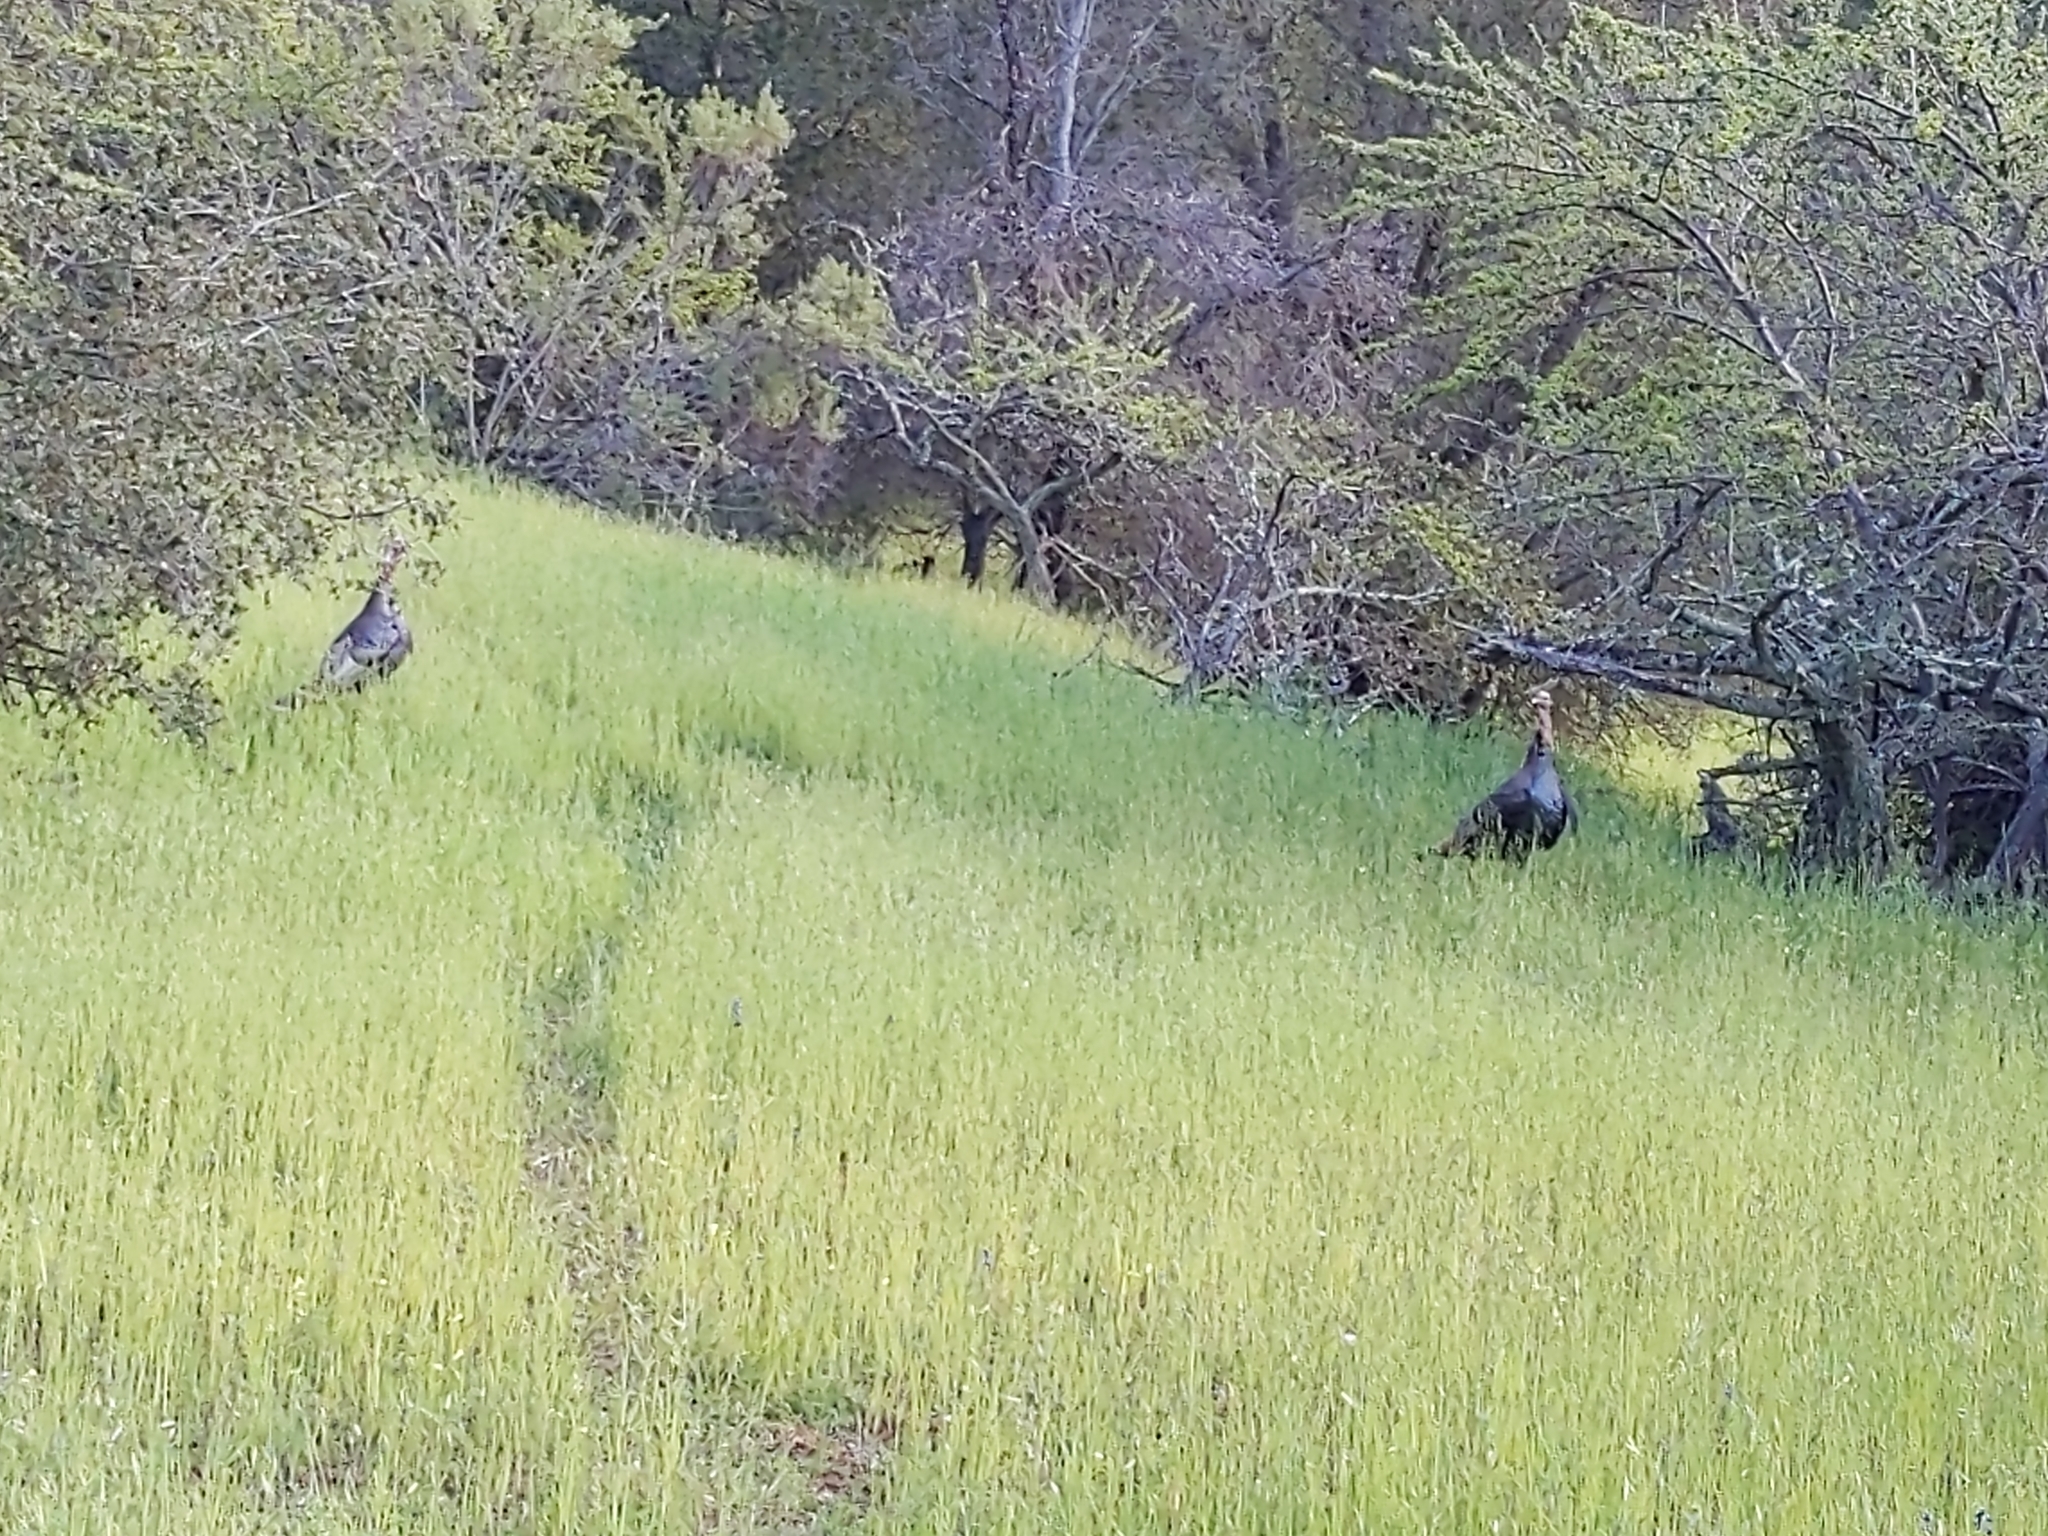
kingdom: Animalia
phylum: Chordata
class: Aves
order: Galliformes
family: Phasianidae
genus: Meleagris
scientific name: Meleagris gallopavo
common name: Wild turkey
